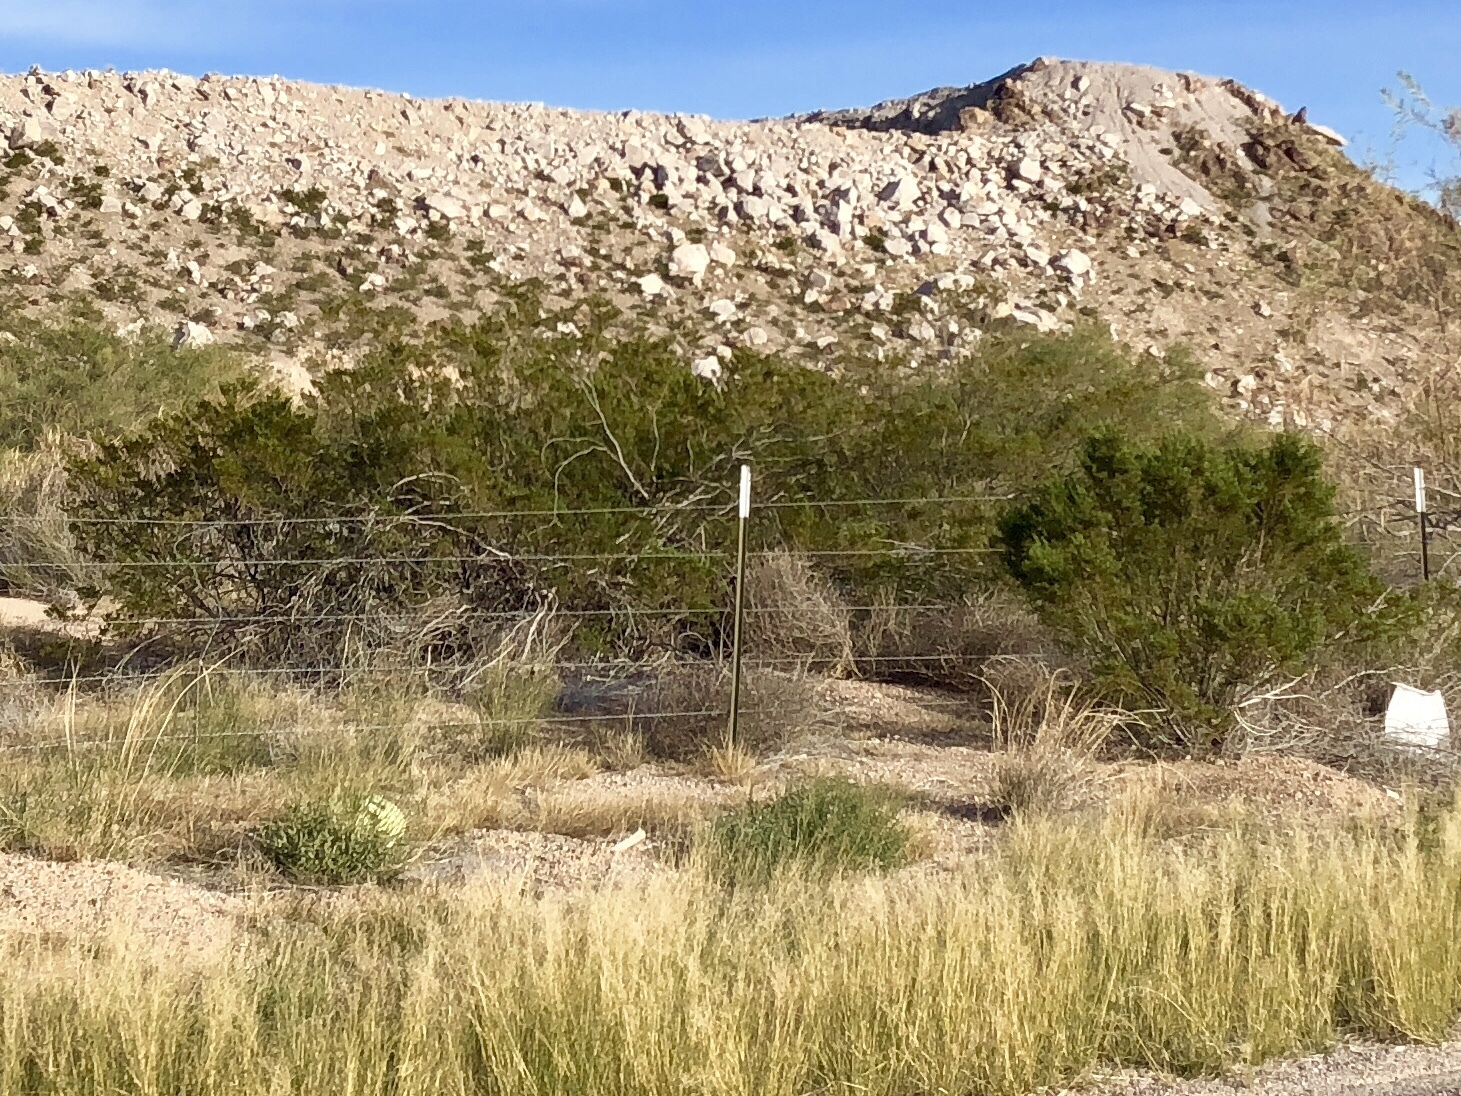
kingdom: Plantae
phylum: Tracheophyta
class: Magnoliopsida
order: Zygophyllales
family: Zygophyllaceae
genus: Larrea
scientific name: Larrea tridentata
